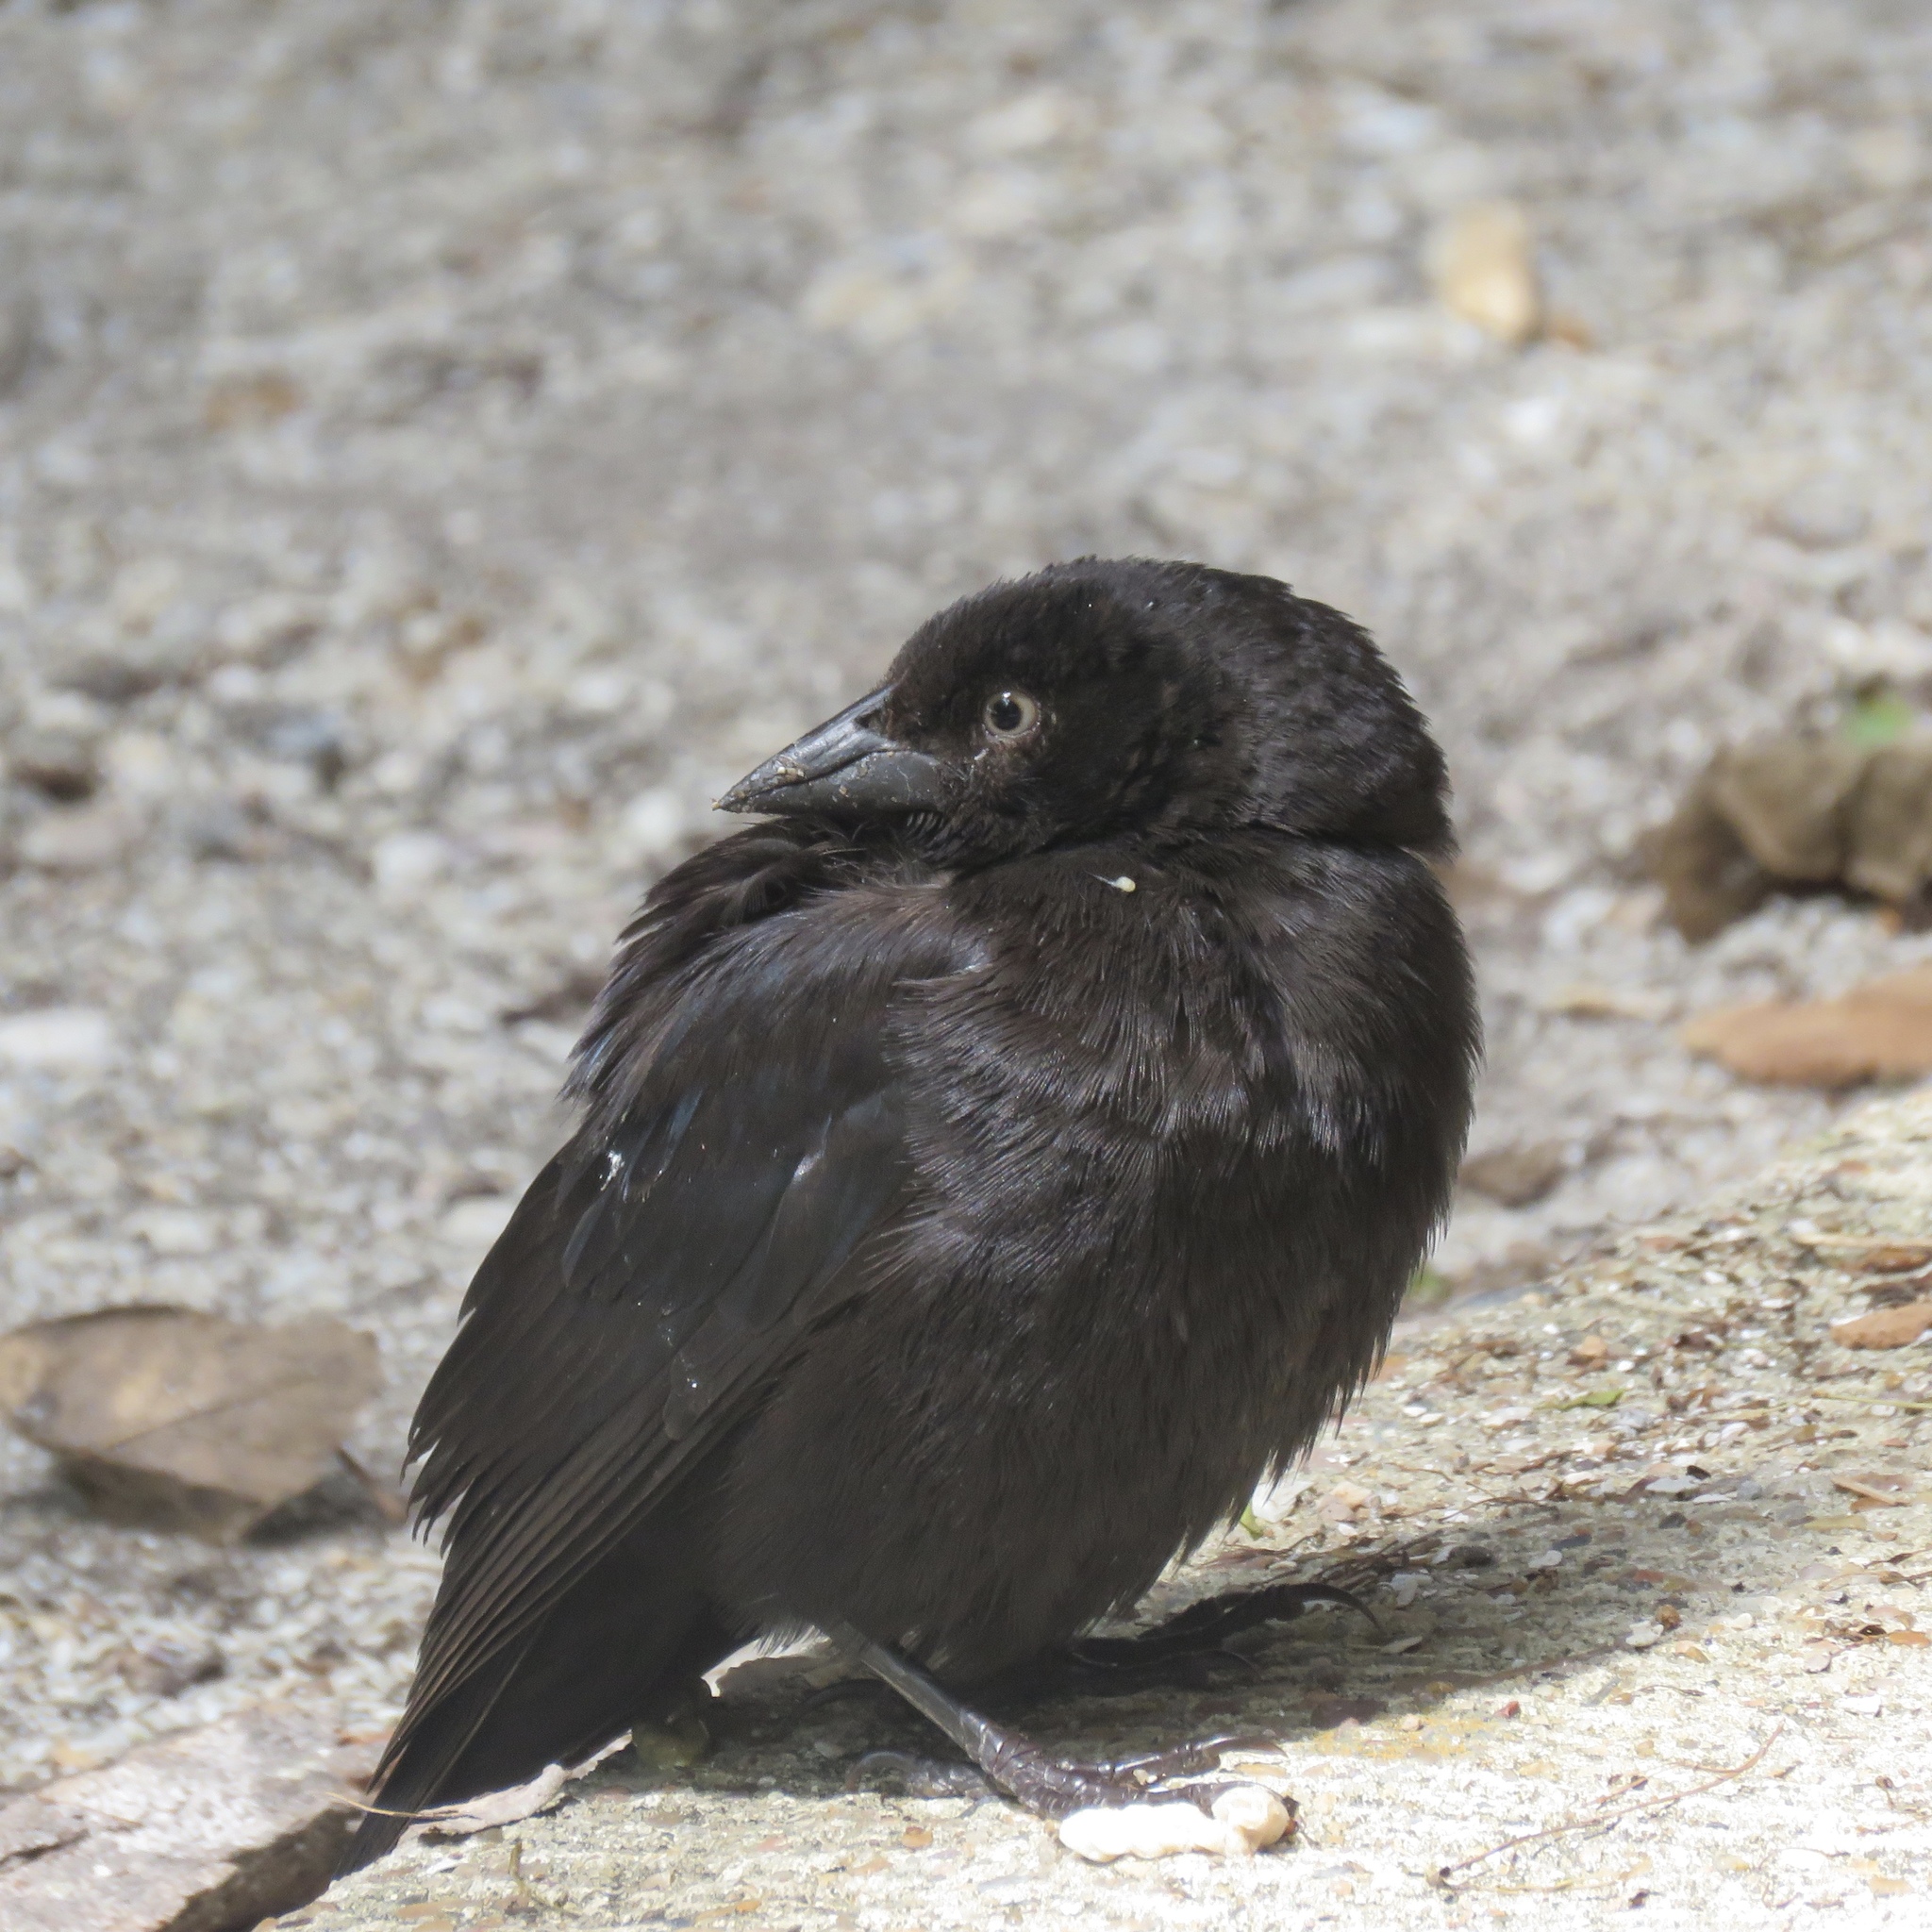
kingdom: Animalia
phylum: Chordata
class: Aves
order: Passeriformes
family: Icteridae
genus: Molothrus
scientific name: Molothrus aeneus
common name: Bronzed cowbird
